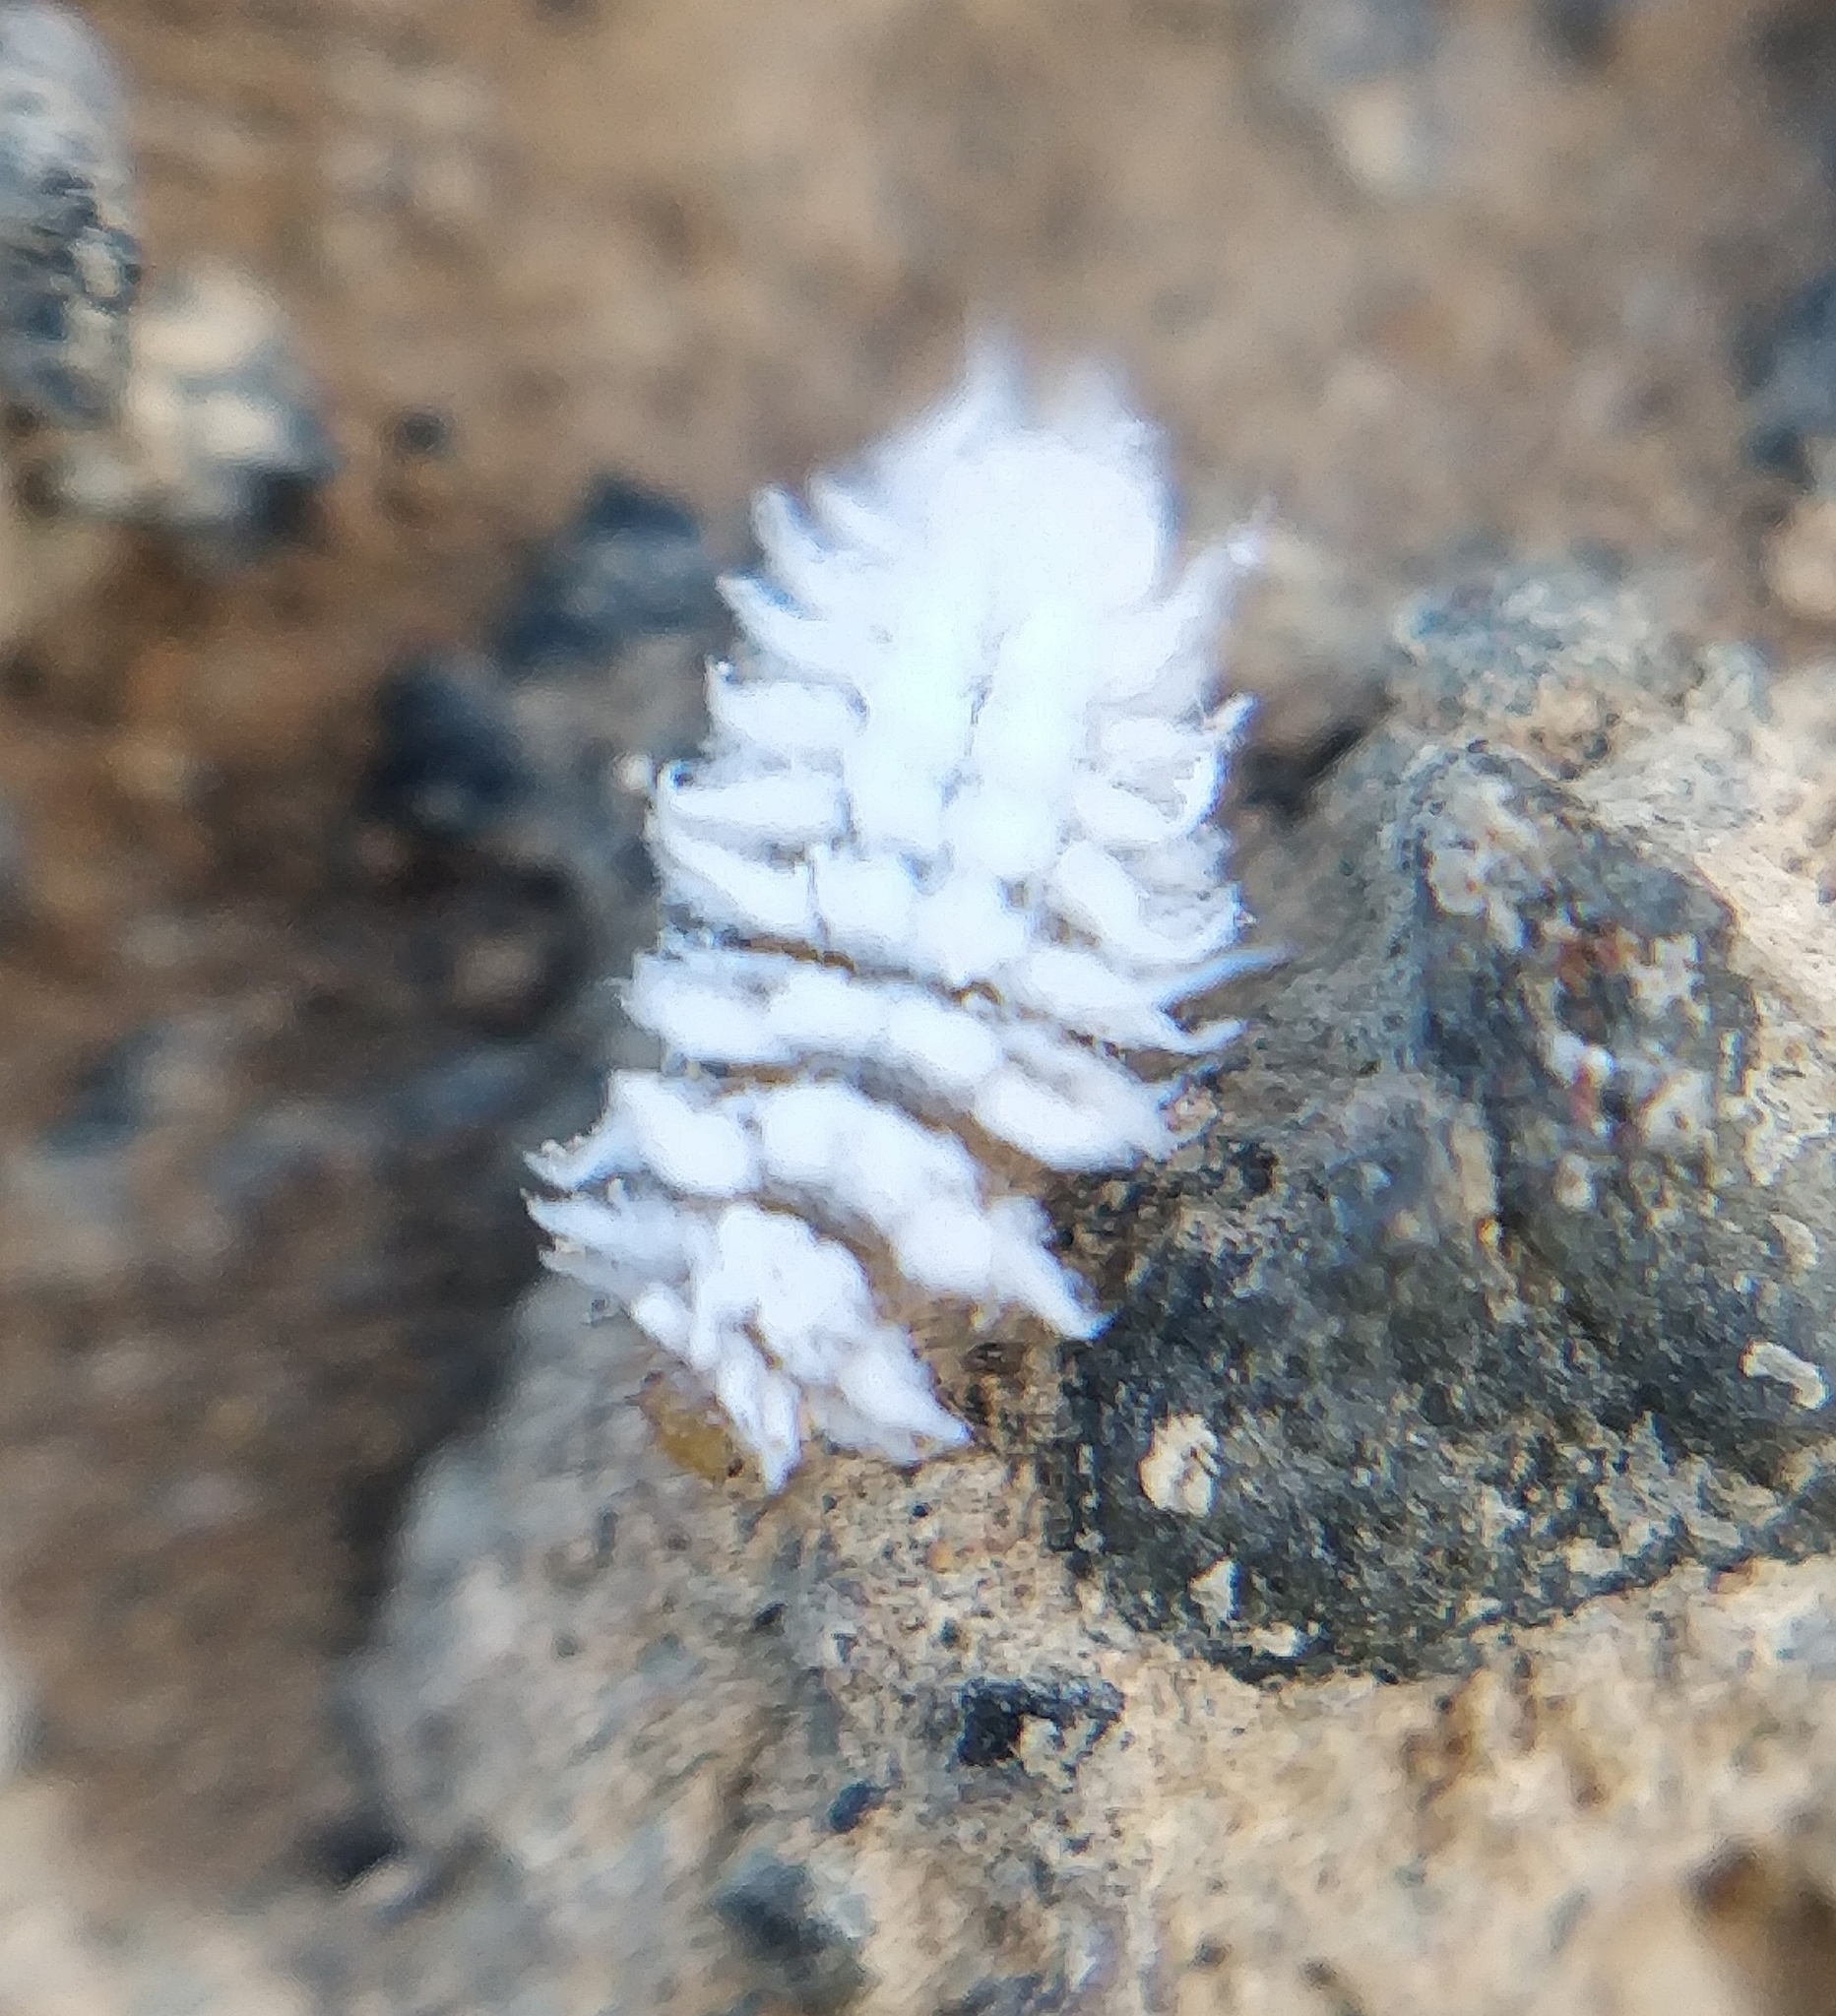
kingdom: Animalia
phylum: Arthropoda
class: Insecta
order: Coleoptera
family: Coccinellidae
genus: Cryptolaemus
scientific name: Cryptolaemus montrouzieri
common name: Mealybug destroyer
